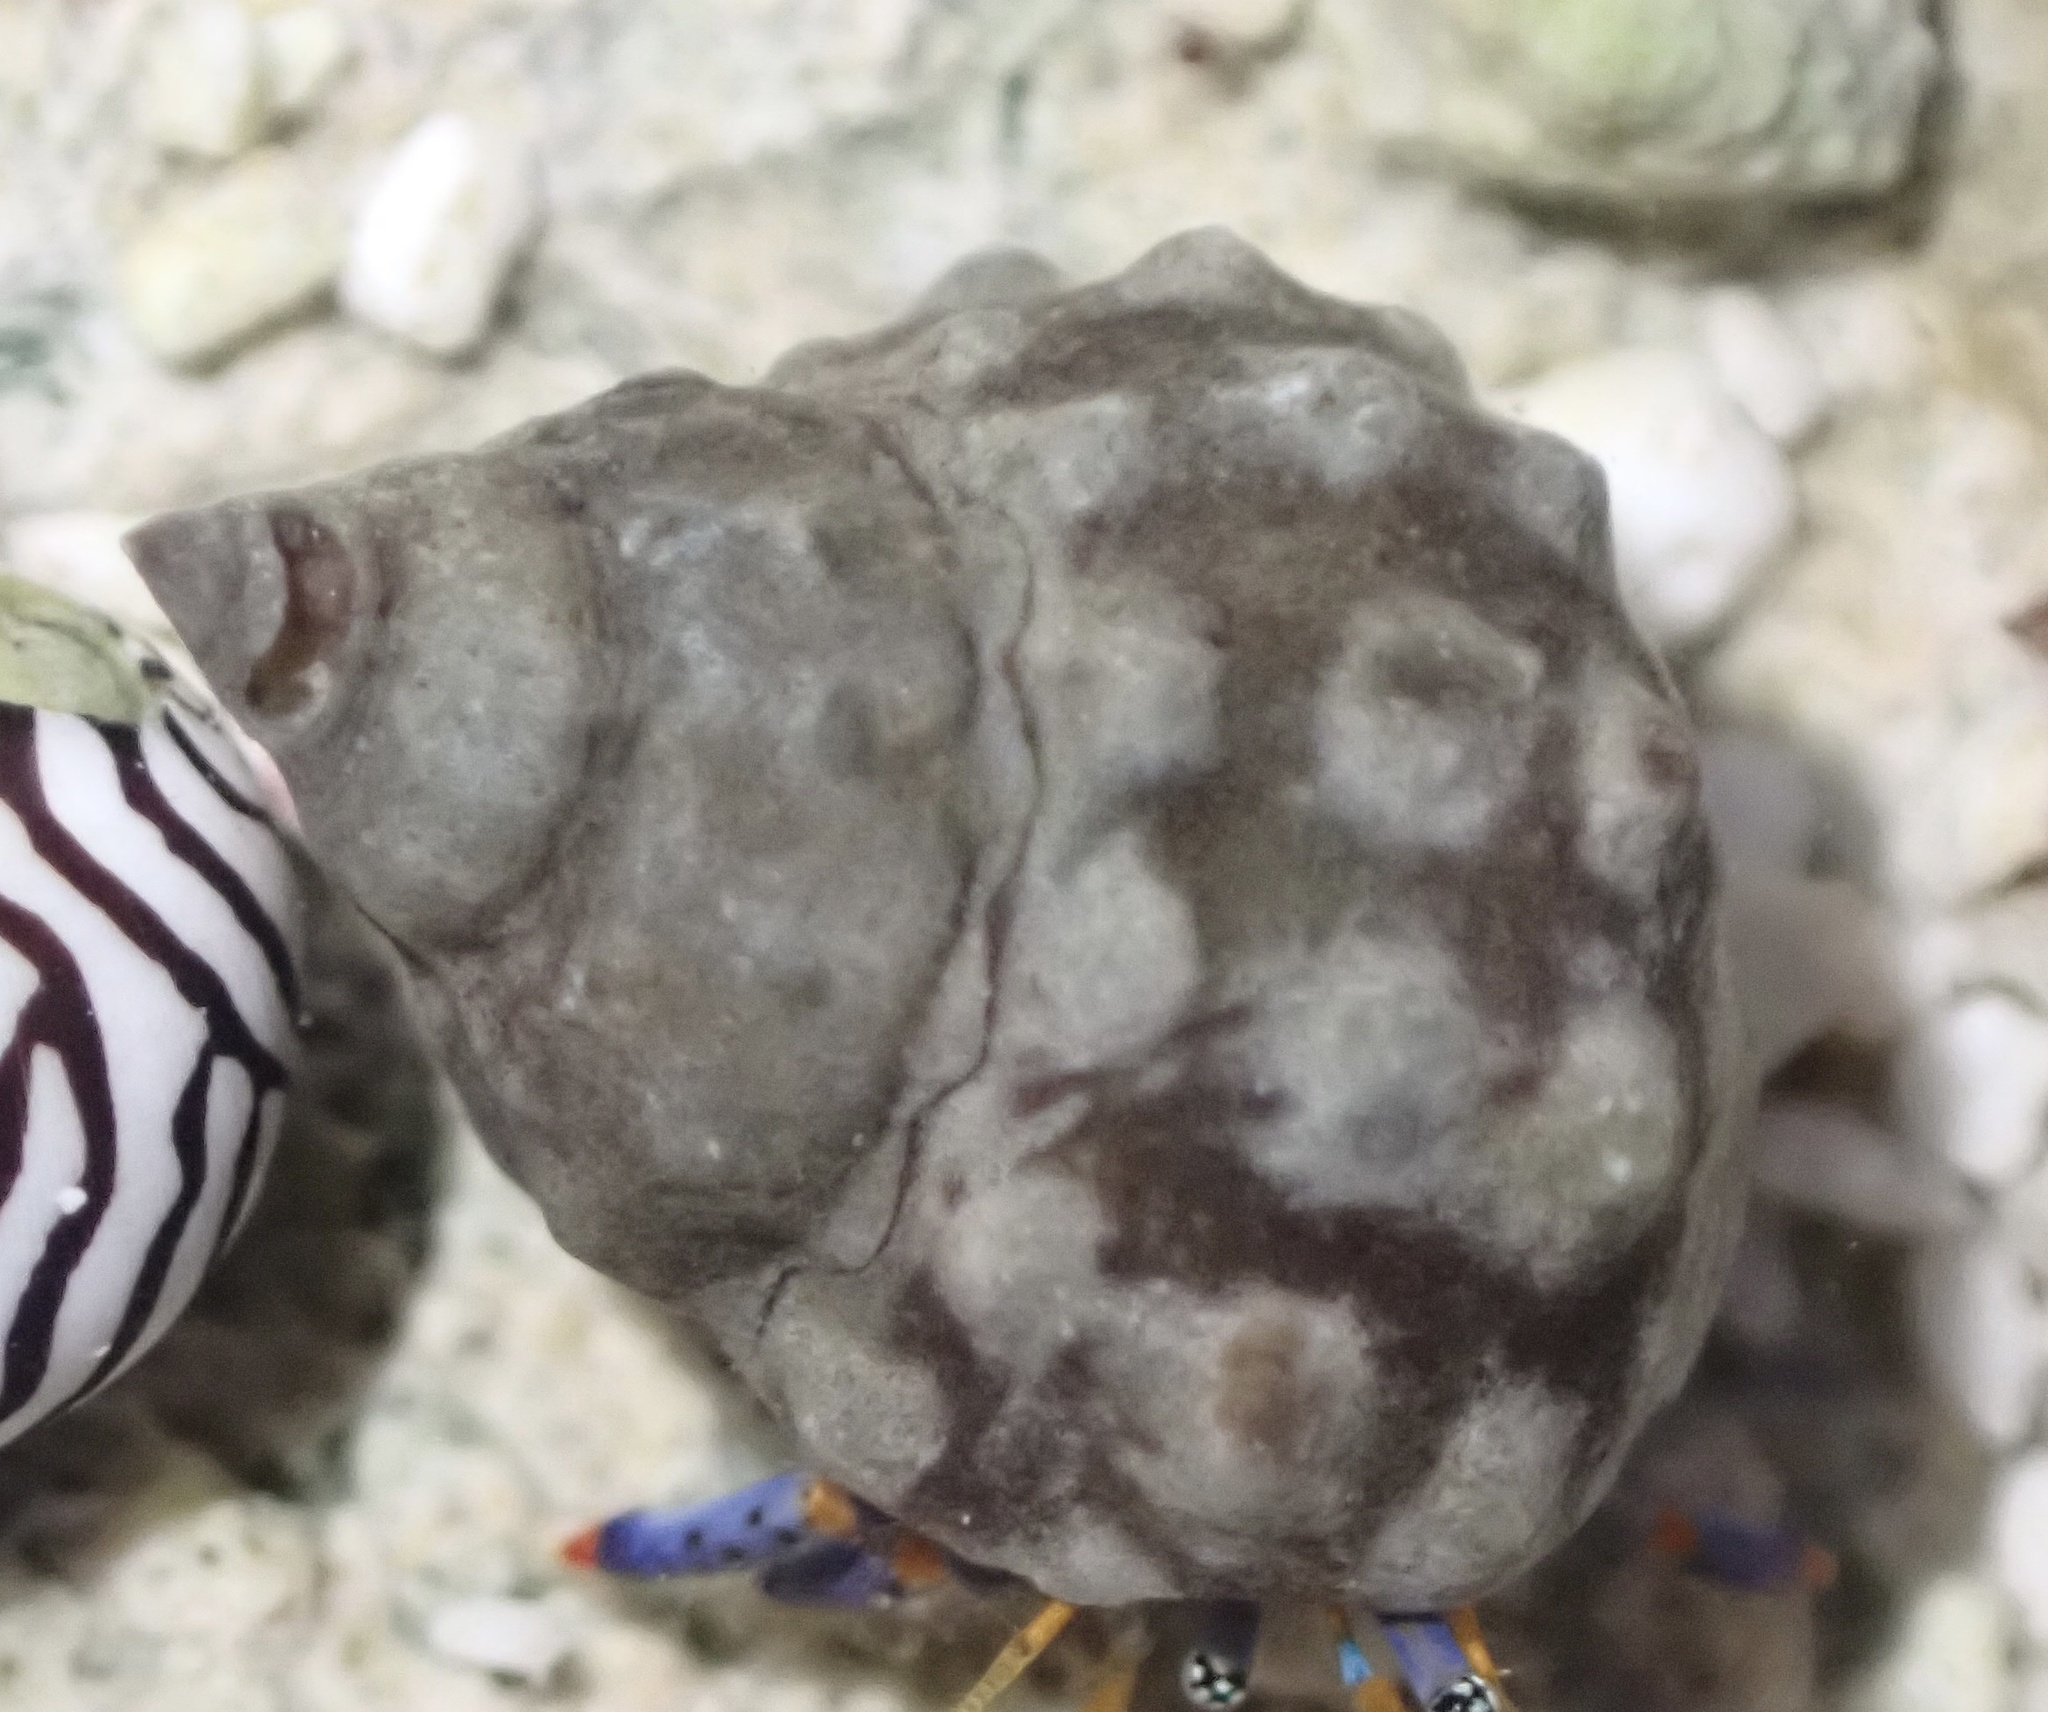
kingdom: Animalia
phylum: Mollusca
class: Gastropoda
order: Littorinimorpha
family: Littorinidae
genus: Echinolittorina
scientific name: Echinolittorina tuberculata
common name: Common periwinkle
